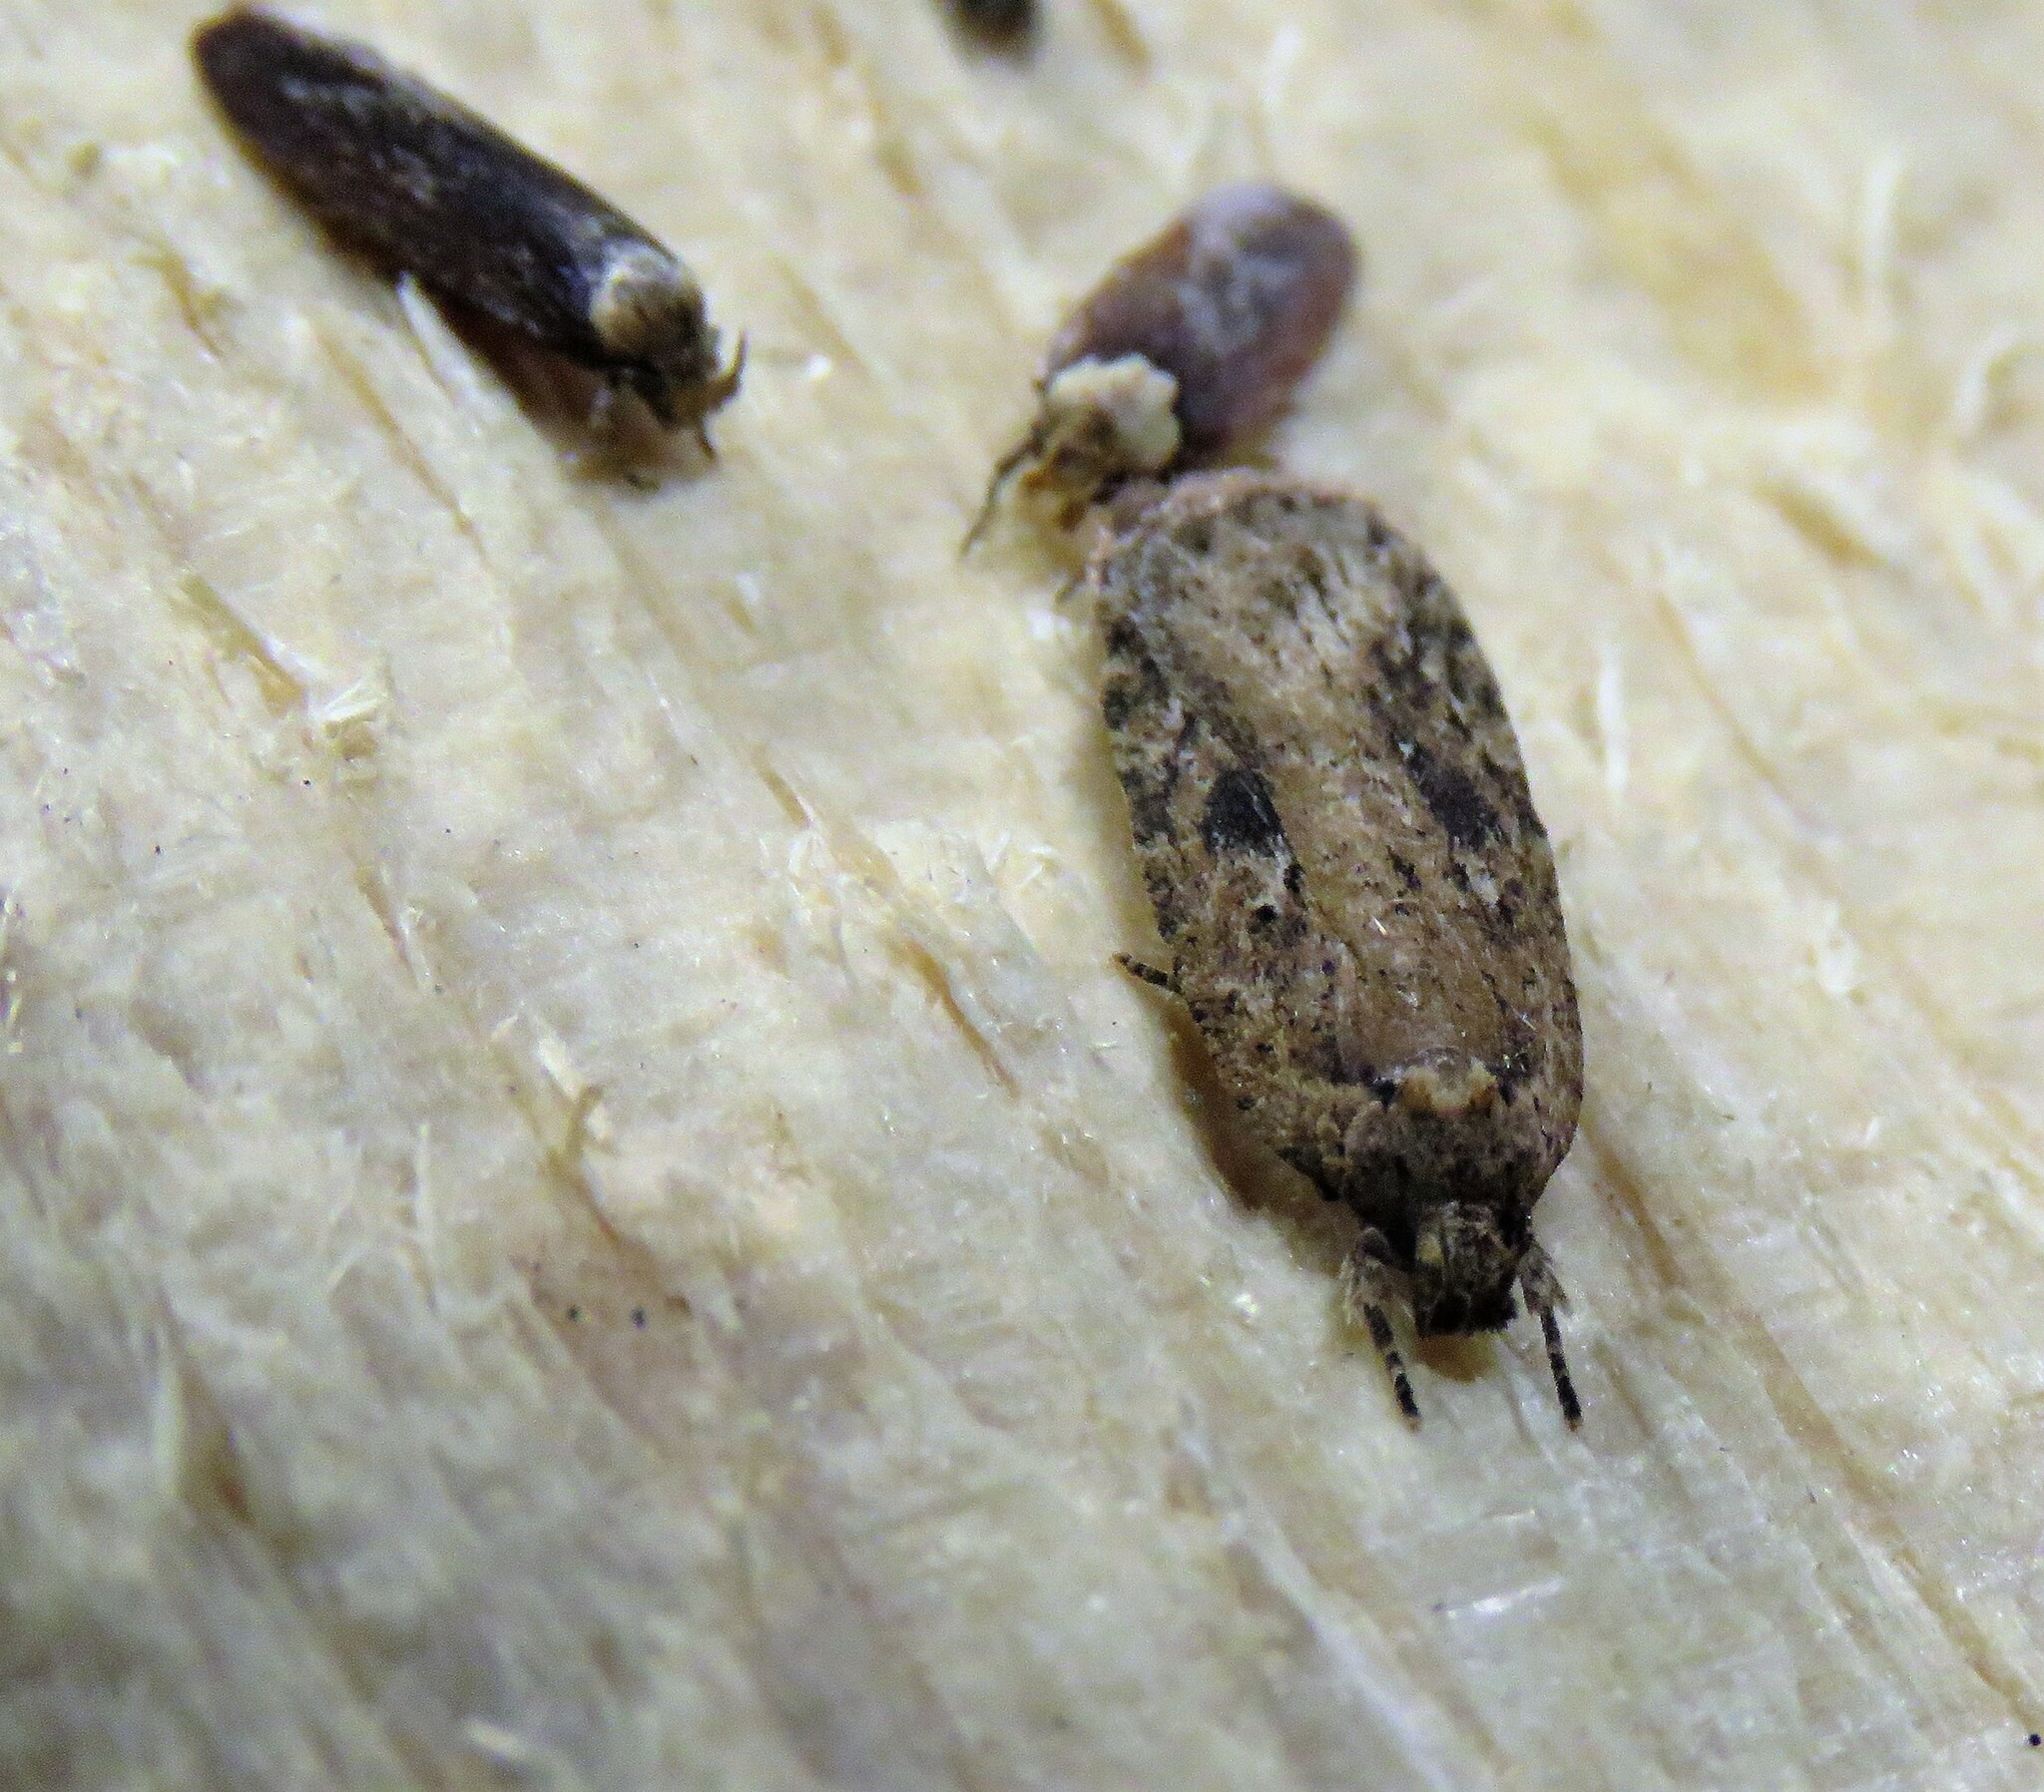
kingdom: Animalia
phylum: Arthropoda
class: Insecta
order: Lepidoptera
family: Depressariidae
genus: Agonopterix
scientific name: Agonopterix pulvipennella
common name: Goldenrod leafffolder
